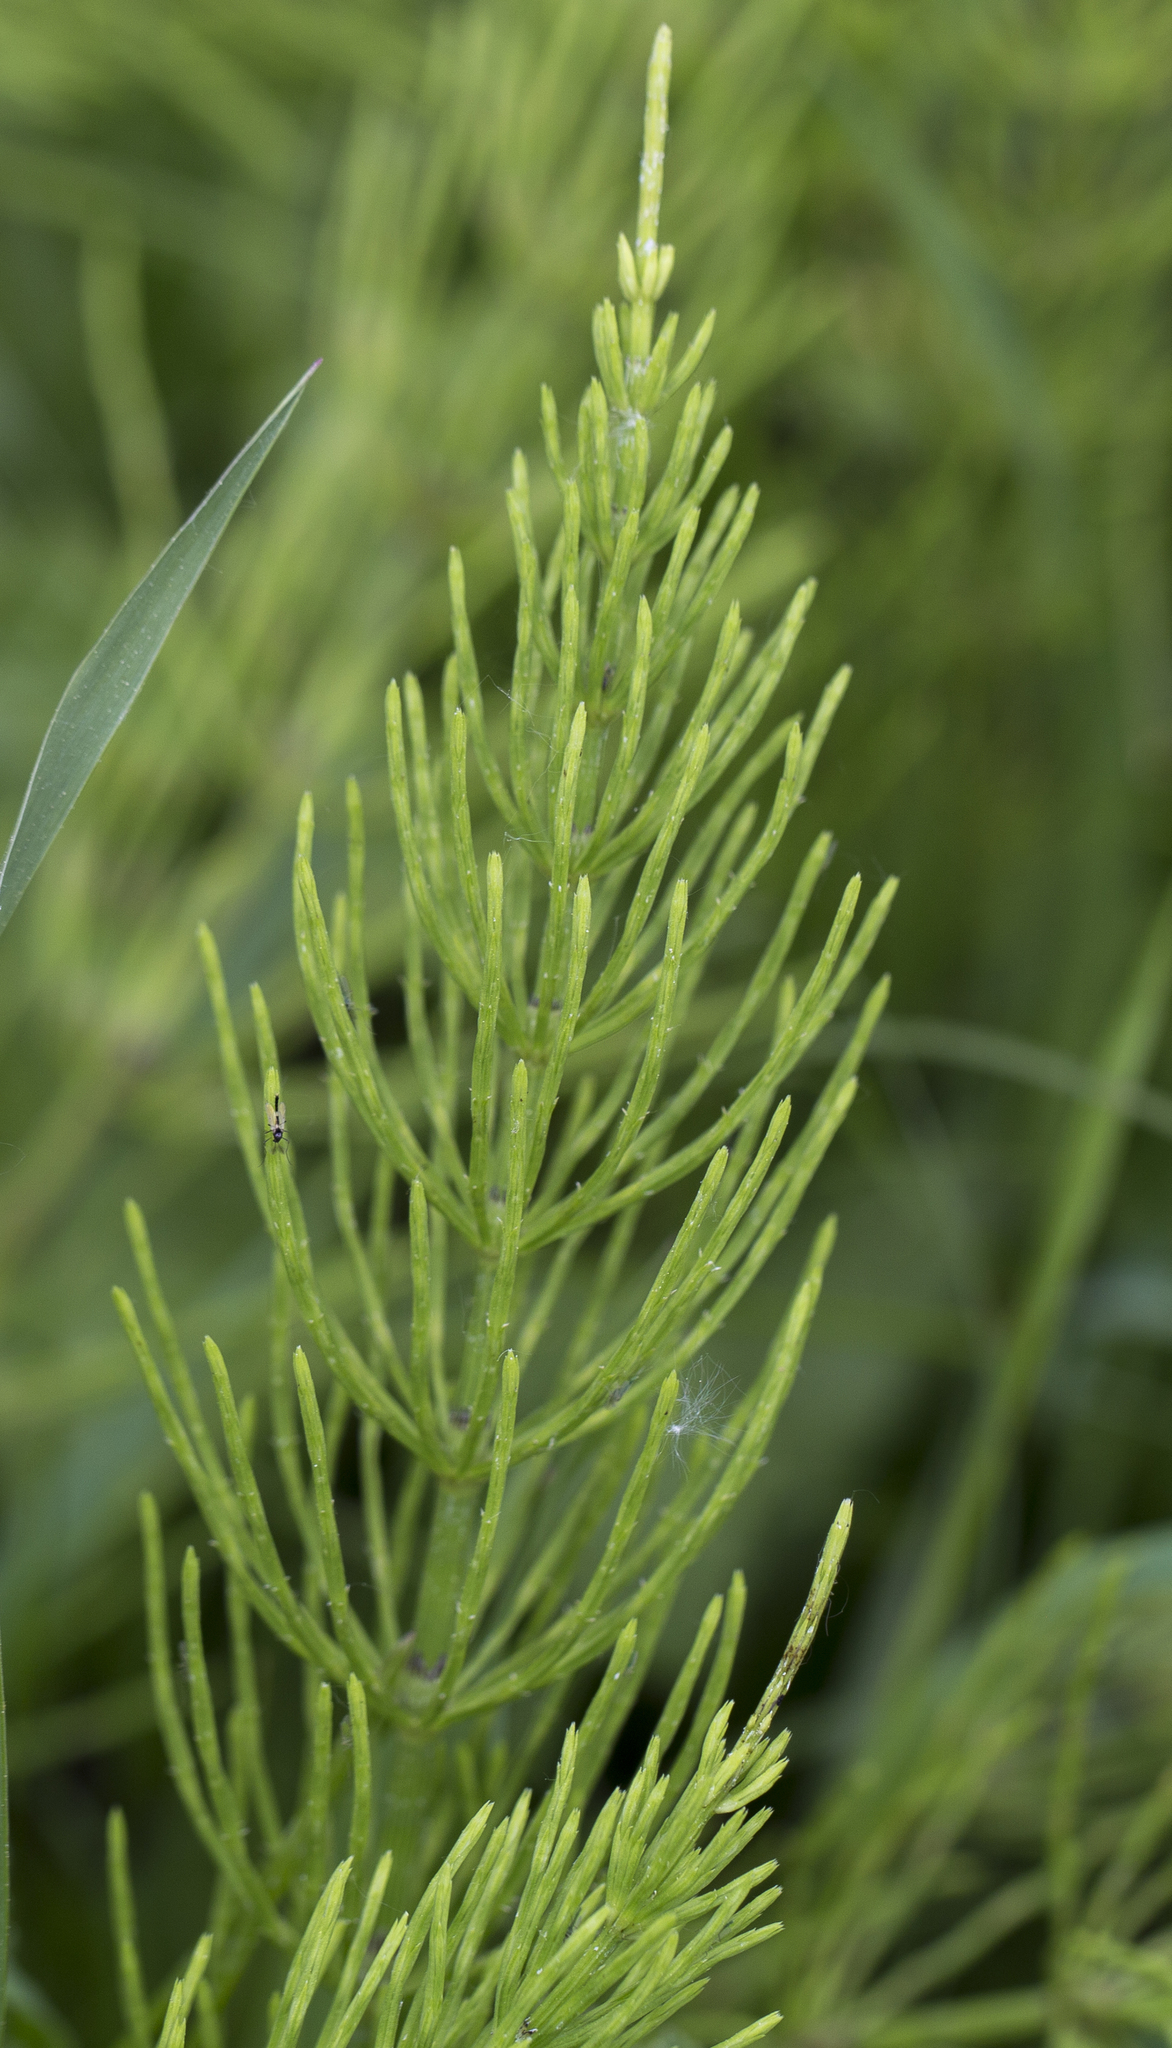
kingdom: Plantae
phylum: Tracheophyta
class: Polypodiopsida
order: Equisetales
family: Equisetaceae
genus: Equisetum
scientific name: Equisetum arvense
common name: Field horsetail
